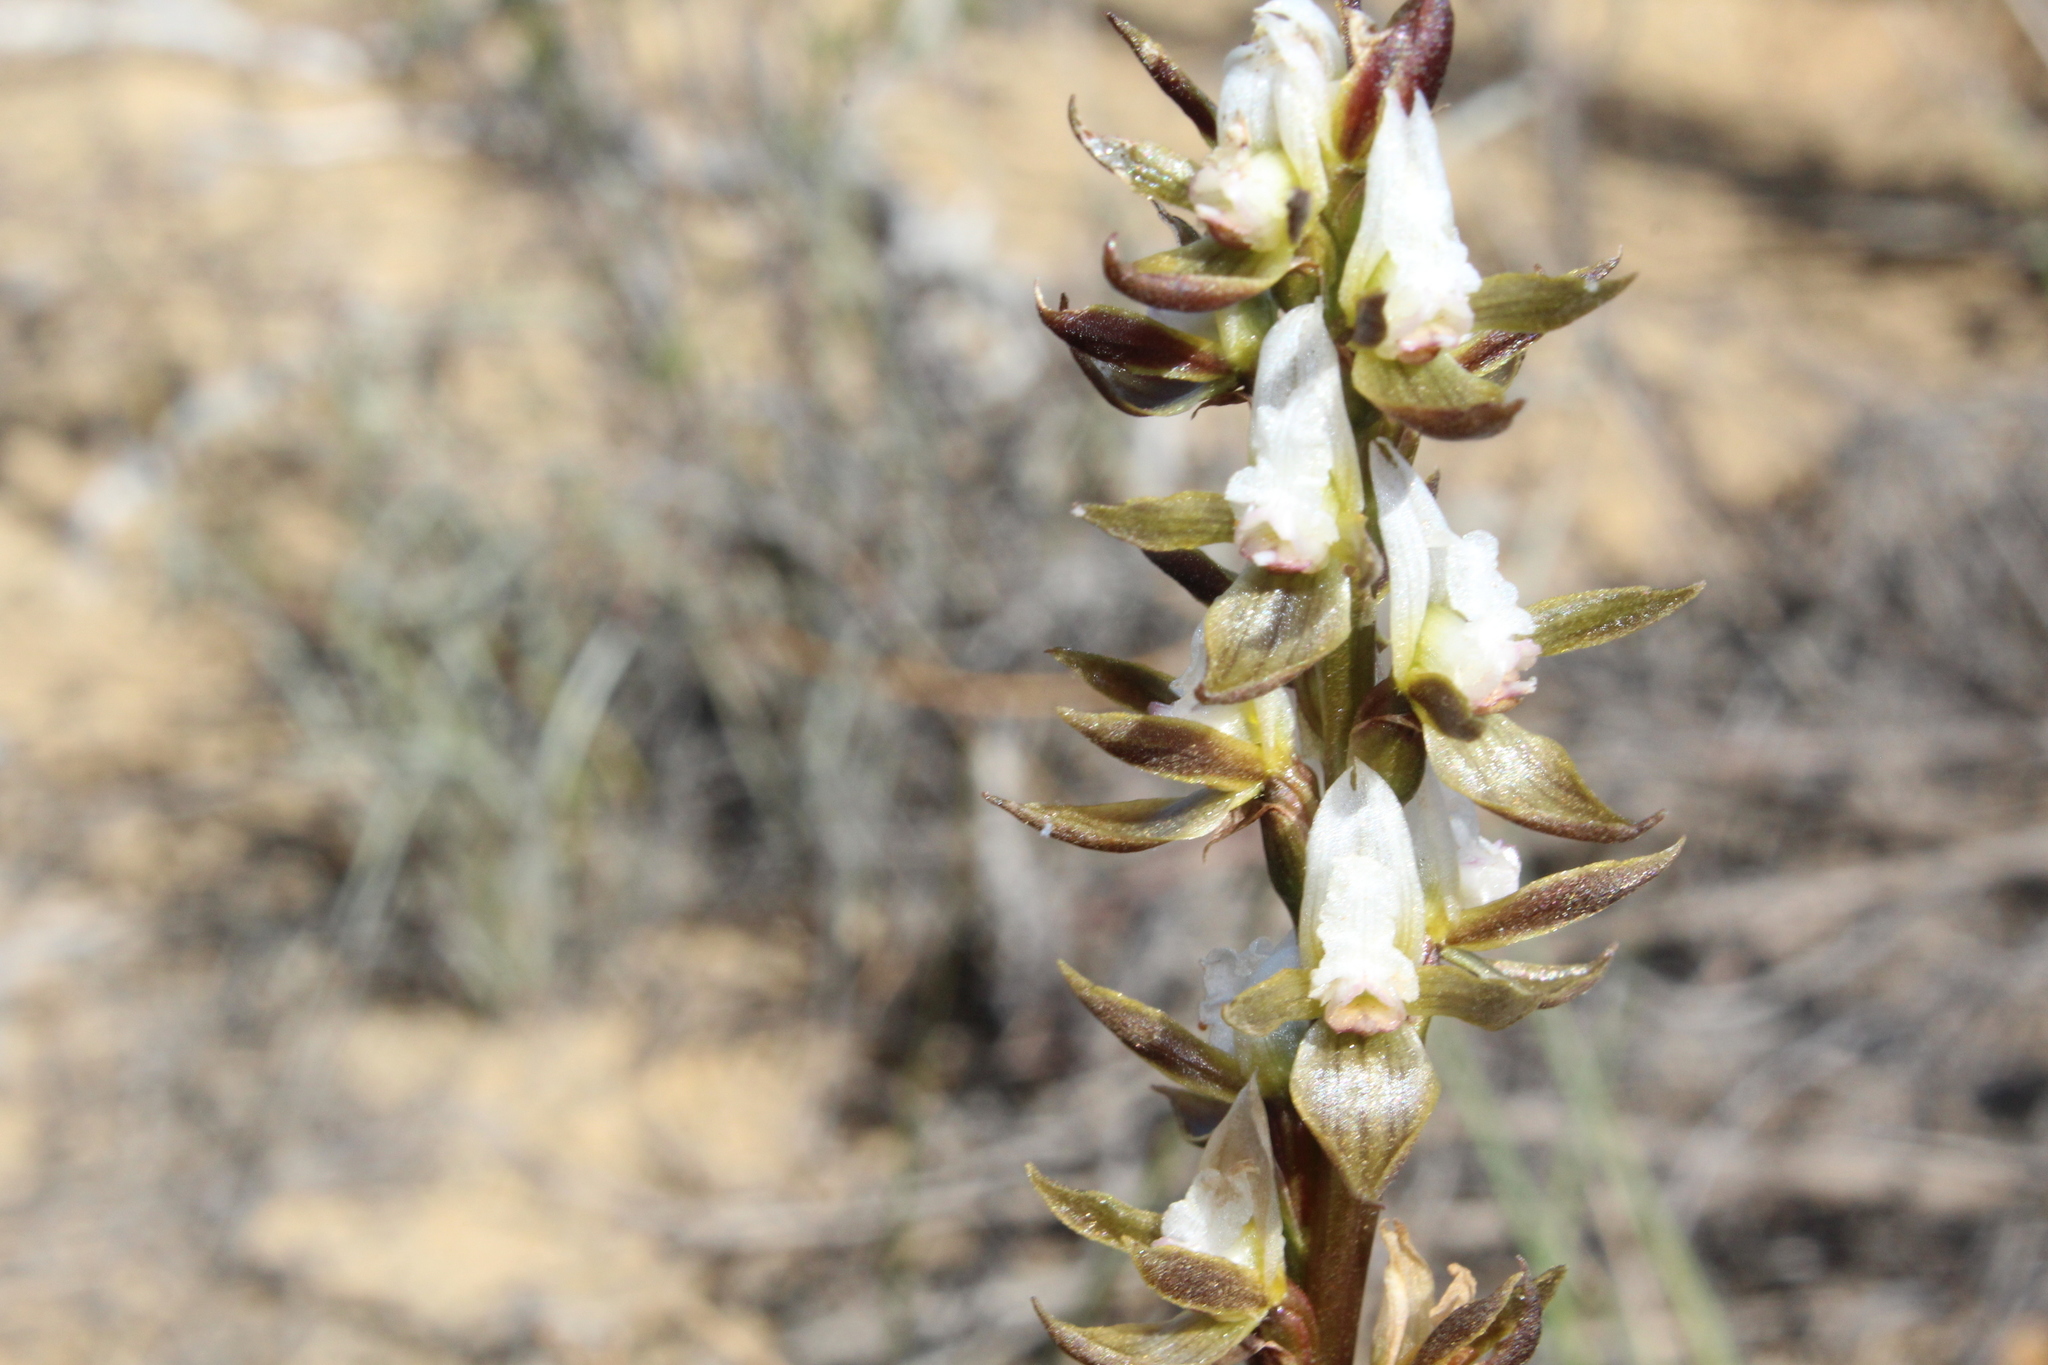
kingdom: Plantae
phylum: Tracheophyta
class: Liliopsida
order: Asparagales
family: Orchidaceae
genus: Prasophyllum
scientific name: Prasophyllum sargentii
